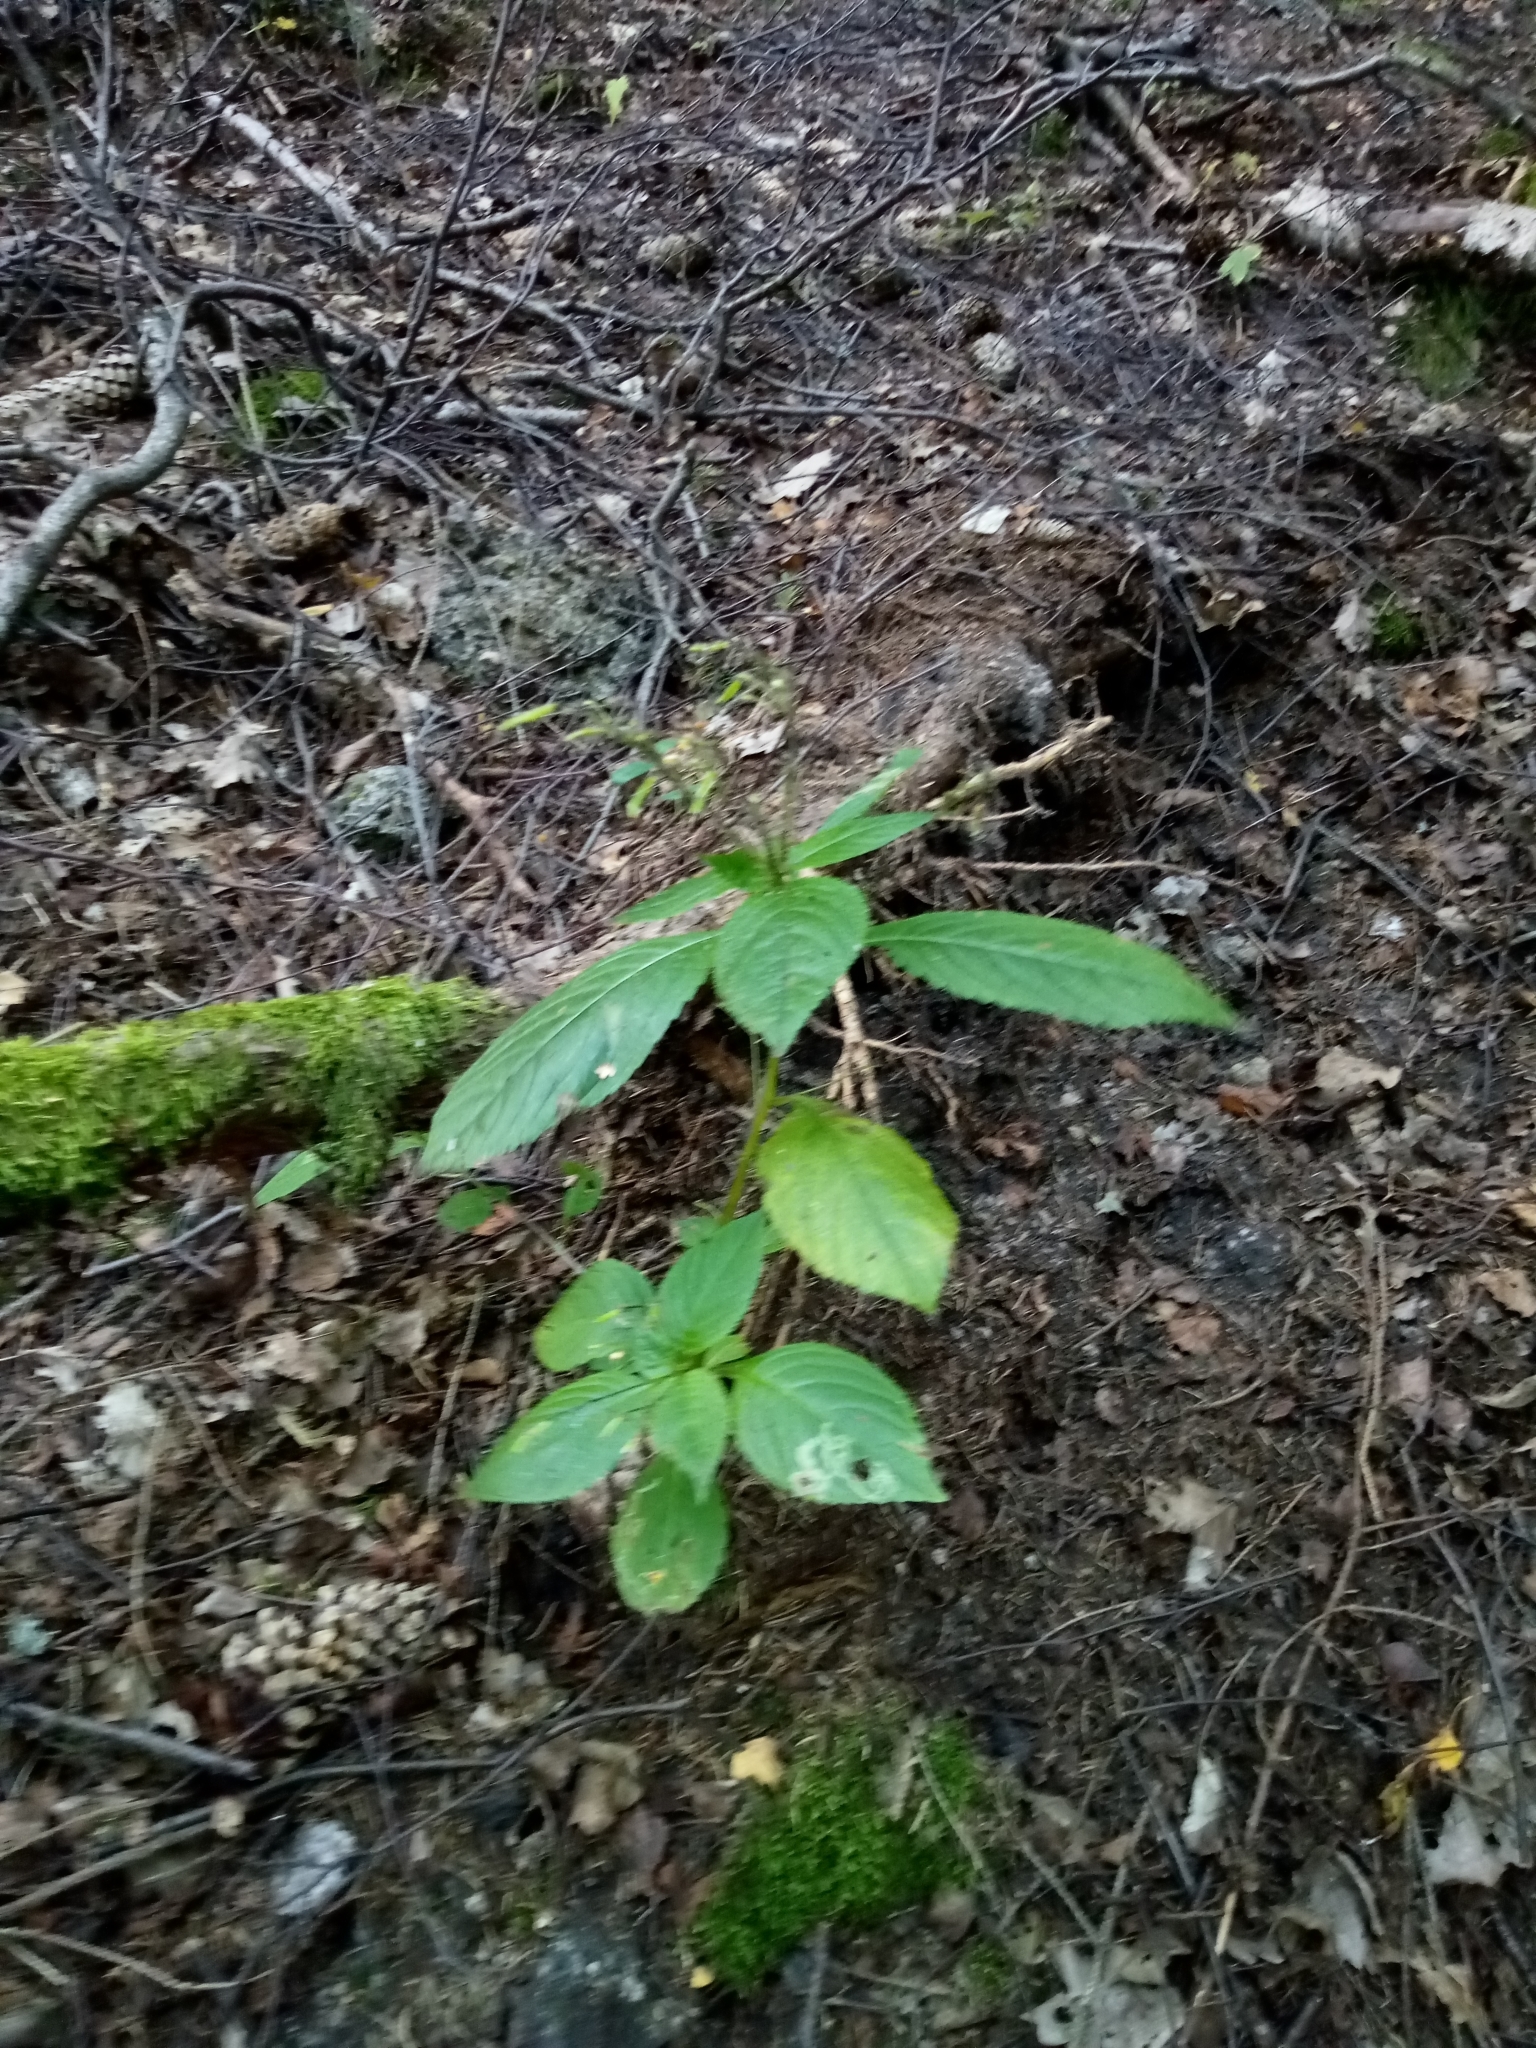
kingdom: Plantae
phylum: Tracheophyta
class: Magnoliopsida
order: Ericales
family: Balsaminaceae
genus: Impatiens
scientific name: Impatiens parviflora
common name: Small balsam
